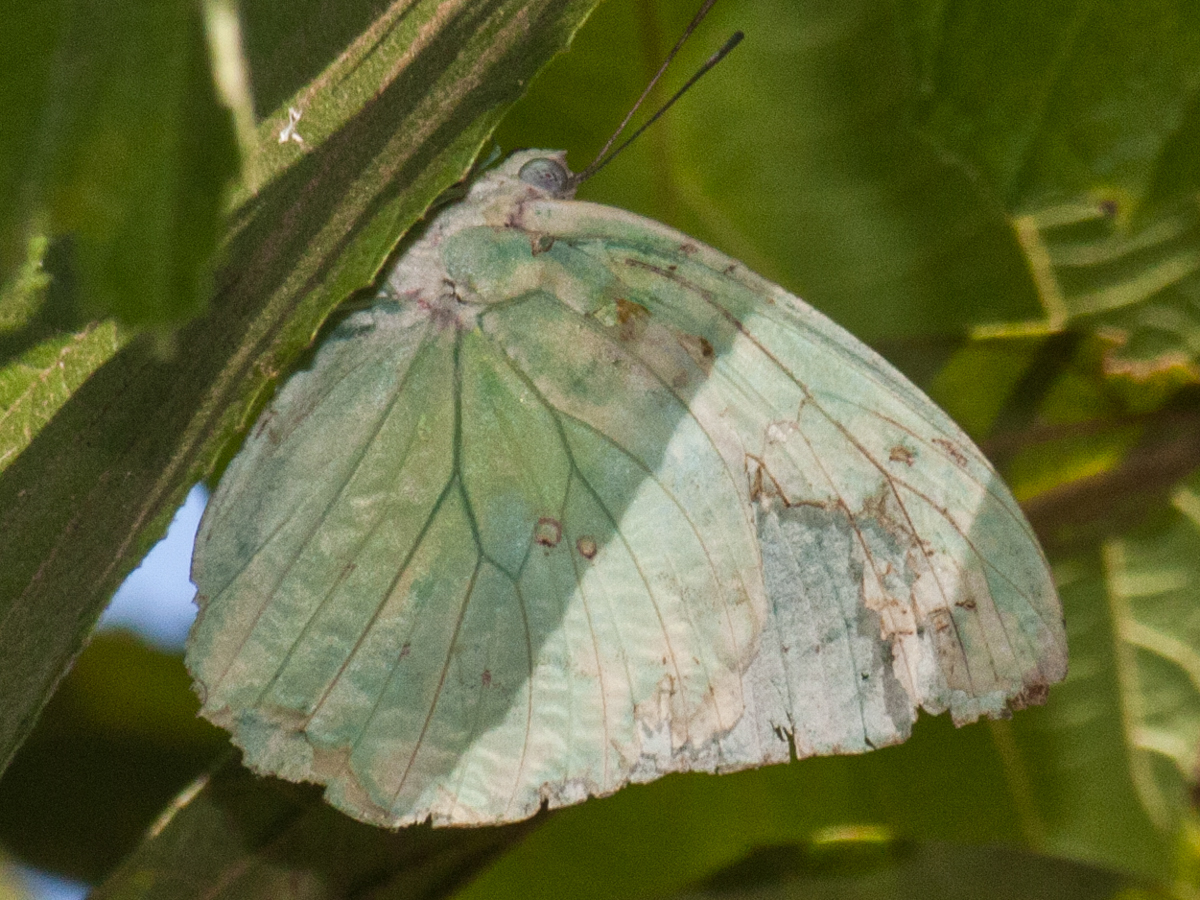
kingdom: Animalia
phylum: Arthropoda
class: Insecta
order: Lepidoptera
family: Pieridae
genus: Catopsilia
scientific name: Catopsilia pomona
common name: Common emigrant
